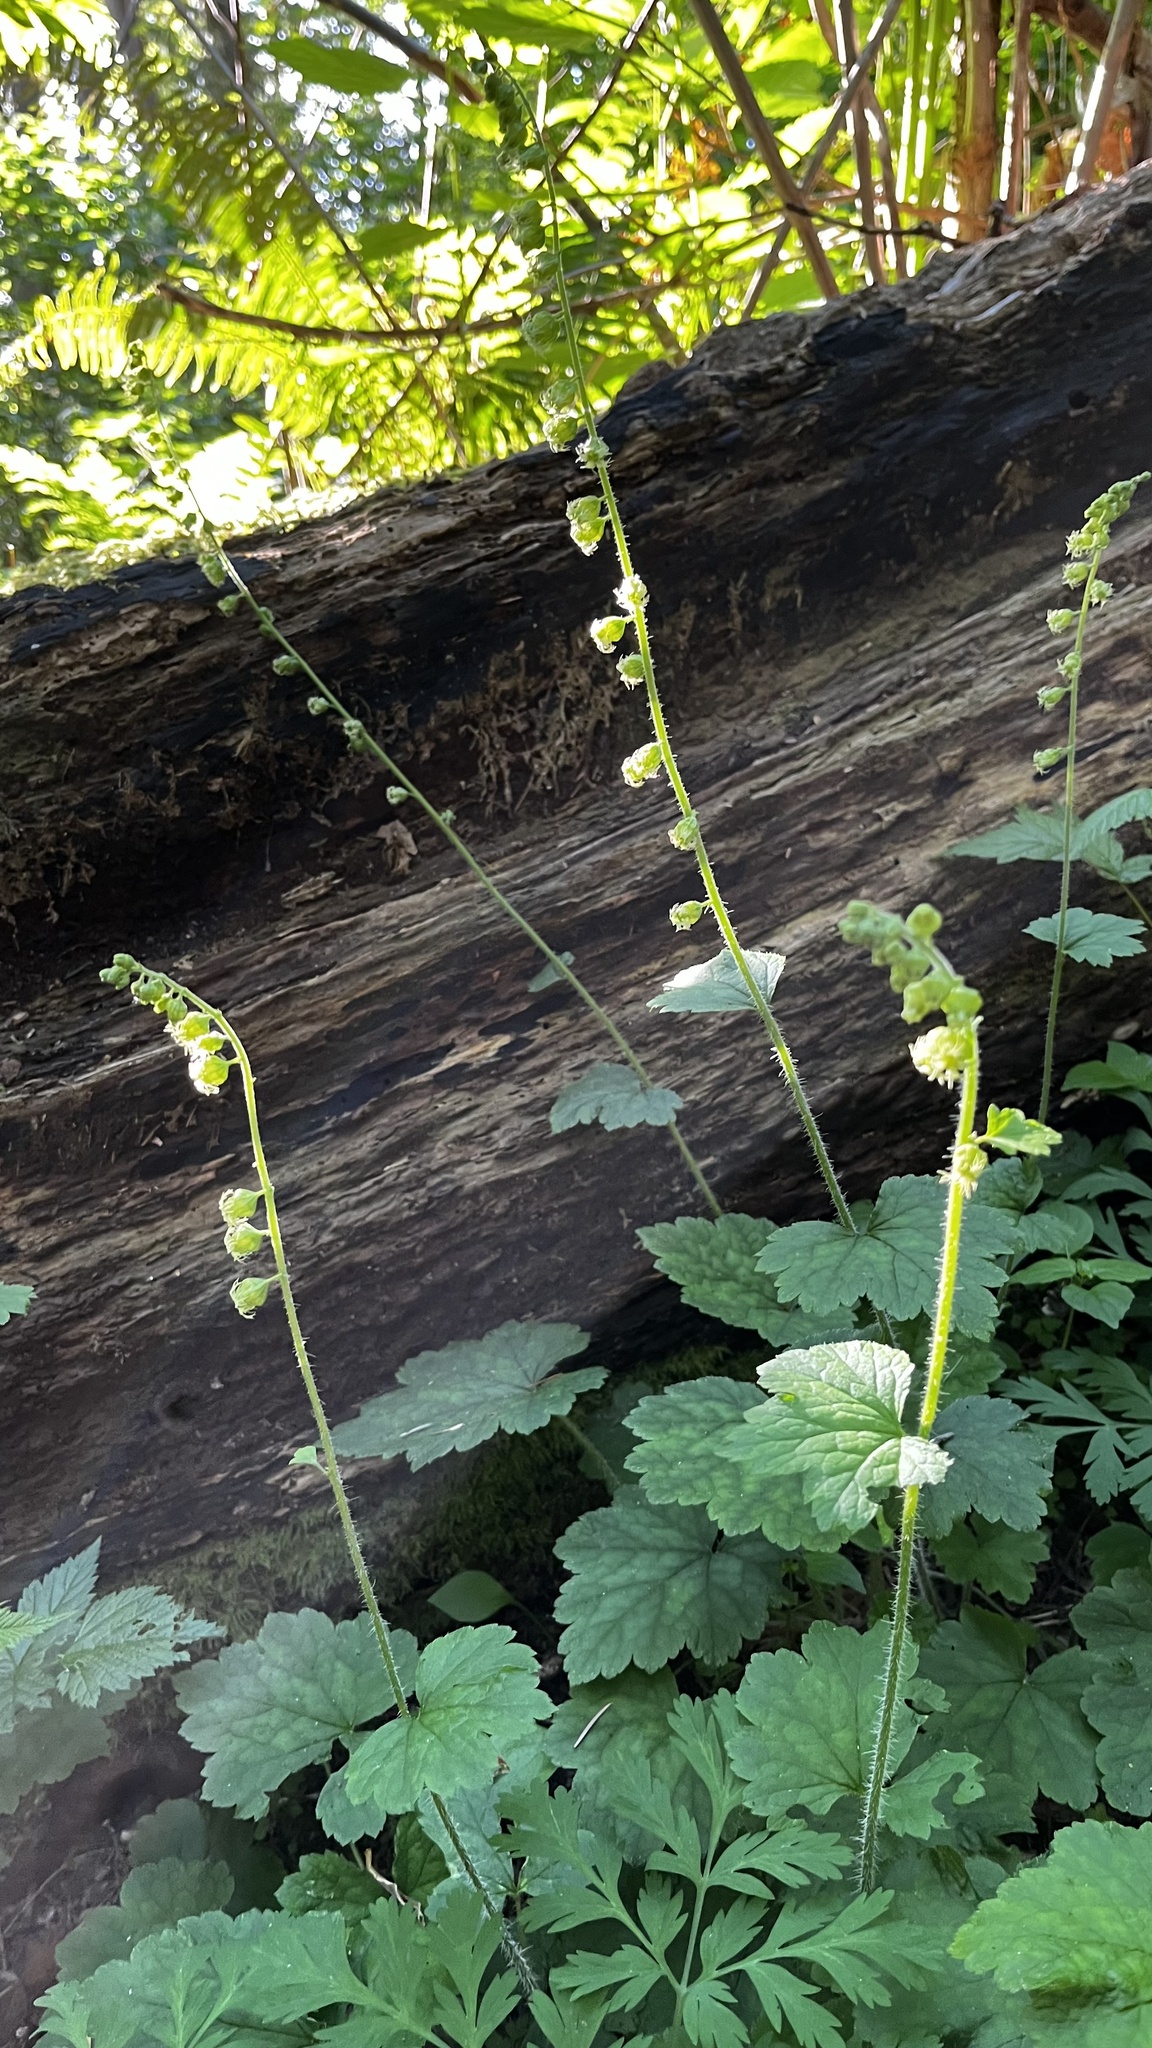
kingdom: Plantae
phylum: Tracheophyta
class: Magnoliopsida
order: Saxifragales
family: Saxifragaceae
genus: Tellima
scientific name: Tellima grandiflora
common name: Fringecups
